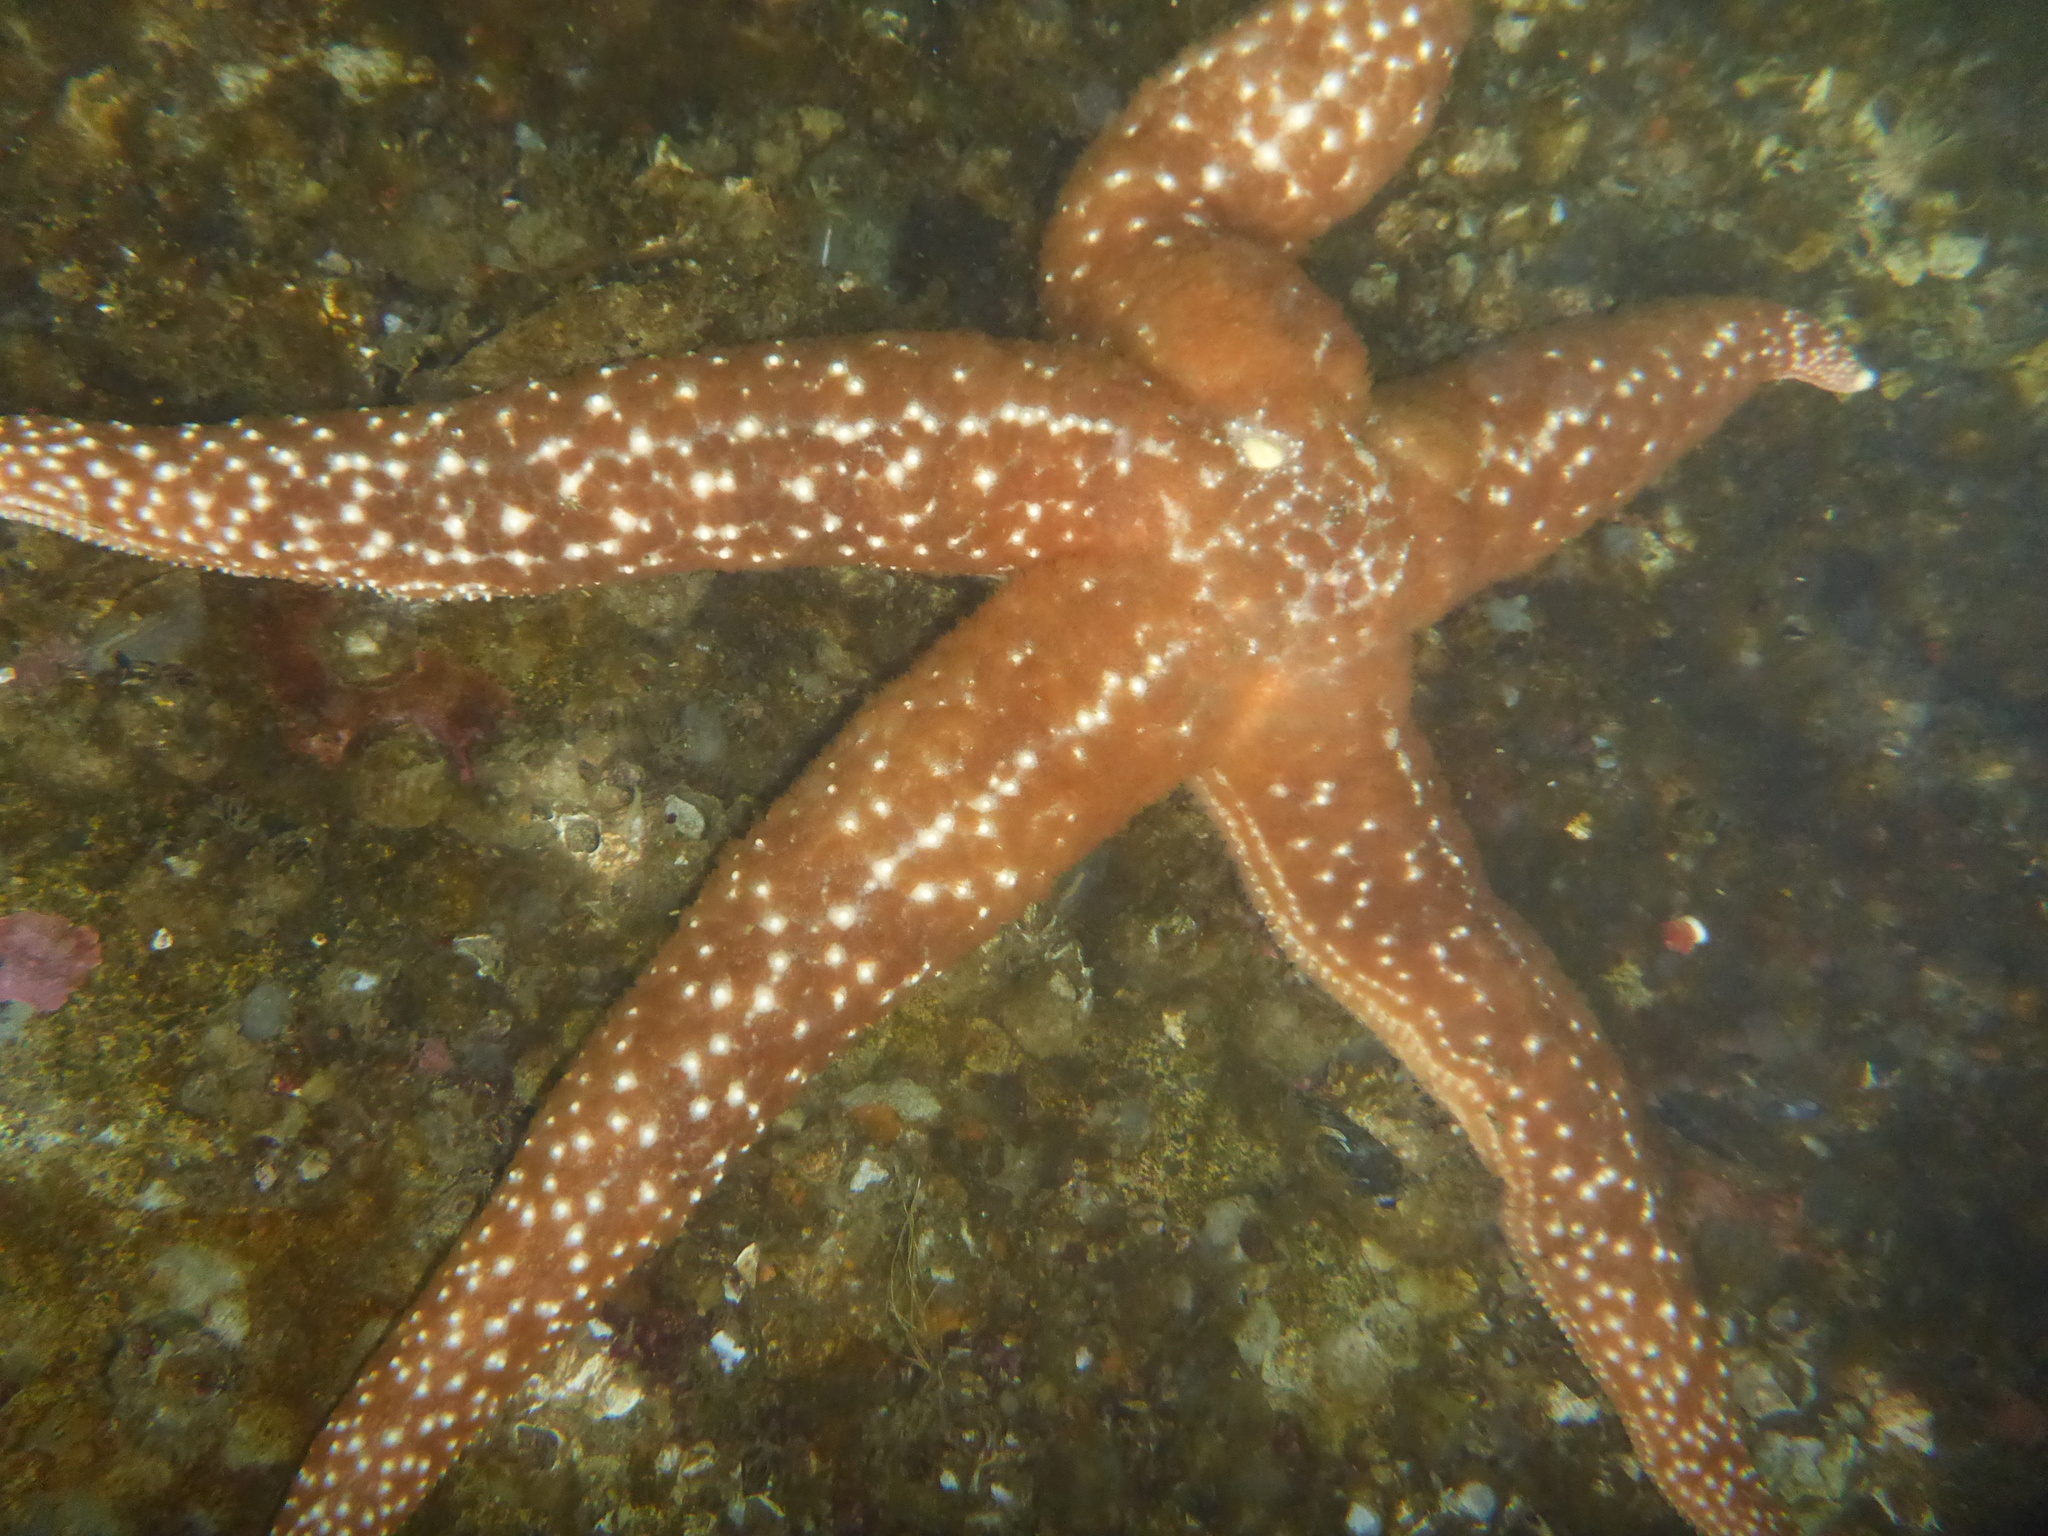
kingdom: Animalia
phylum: Echinodermata
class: Asteroidea
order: Forcipulatida
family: Asteriidae
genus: Evasterias
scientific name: Evasterias troschelii
